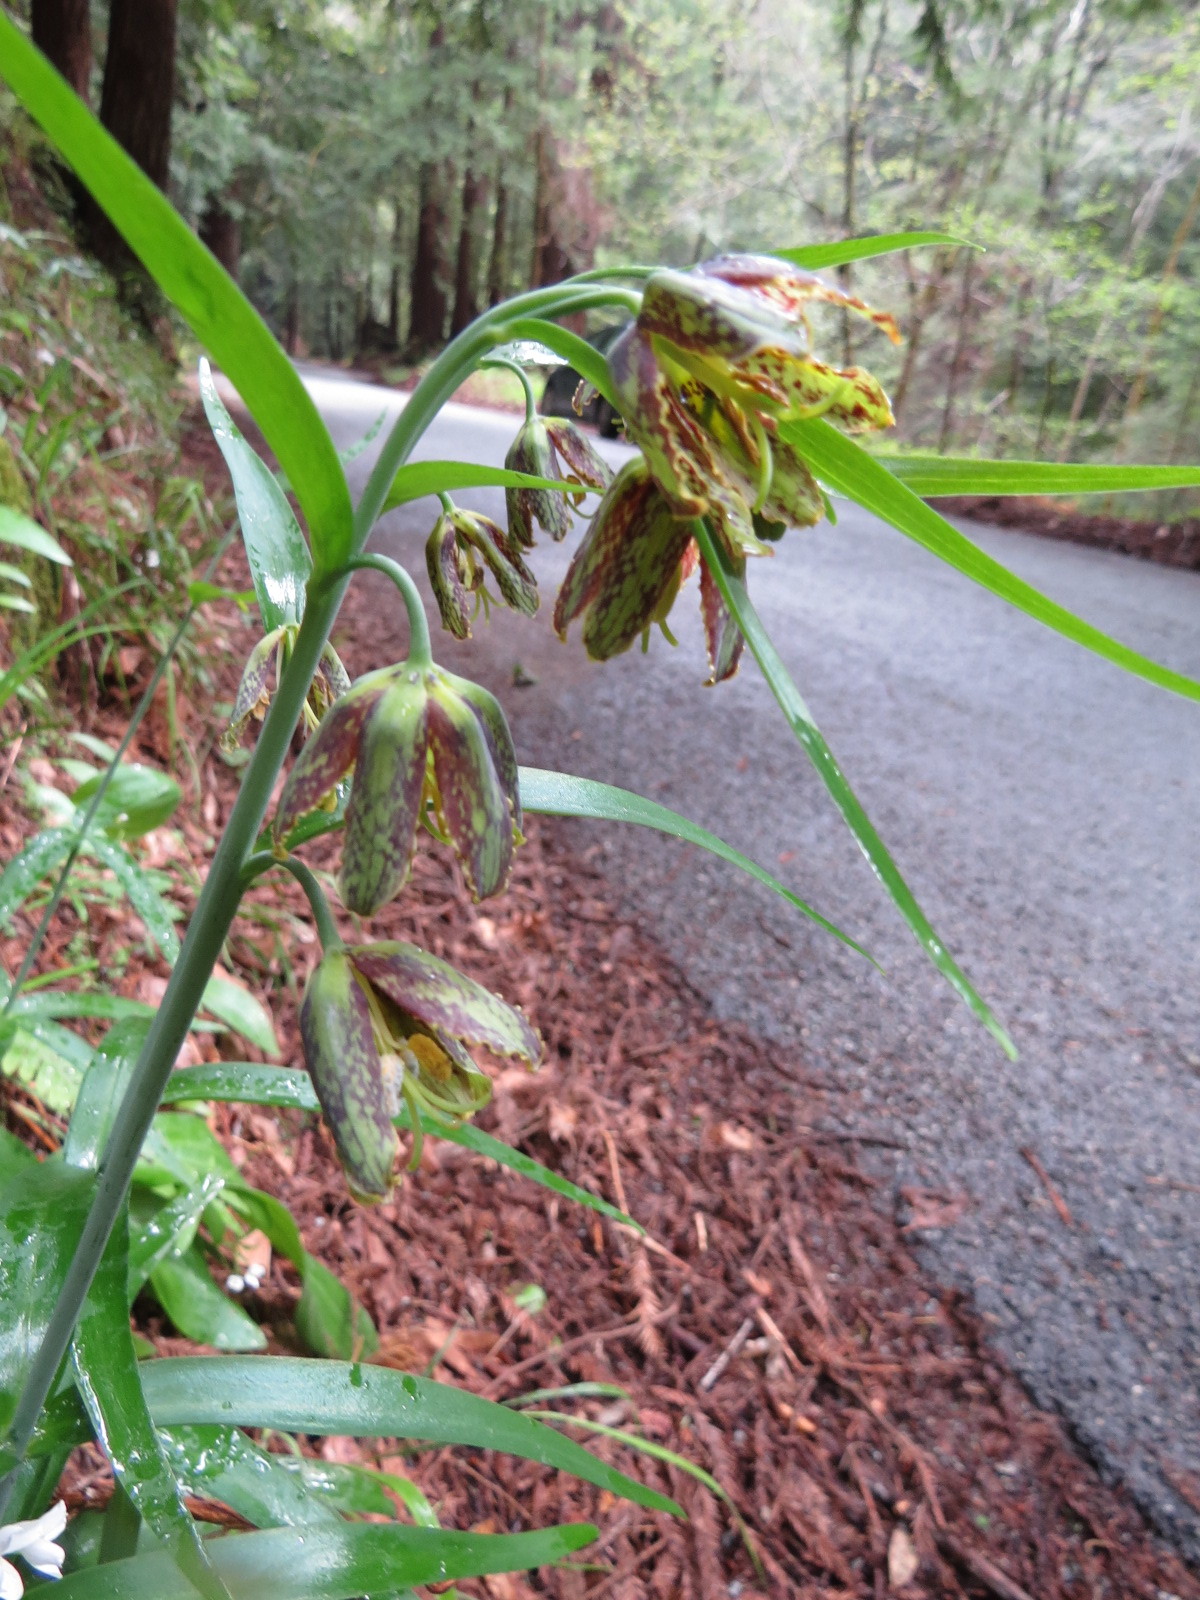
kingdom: Plantae
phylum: Tracheophyta
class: Liliopsida
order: Liliales
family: Liliaceae
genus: Fritillaria
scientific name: Fritillaria affinis
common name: Ojai fritillary
